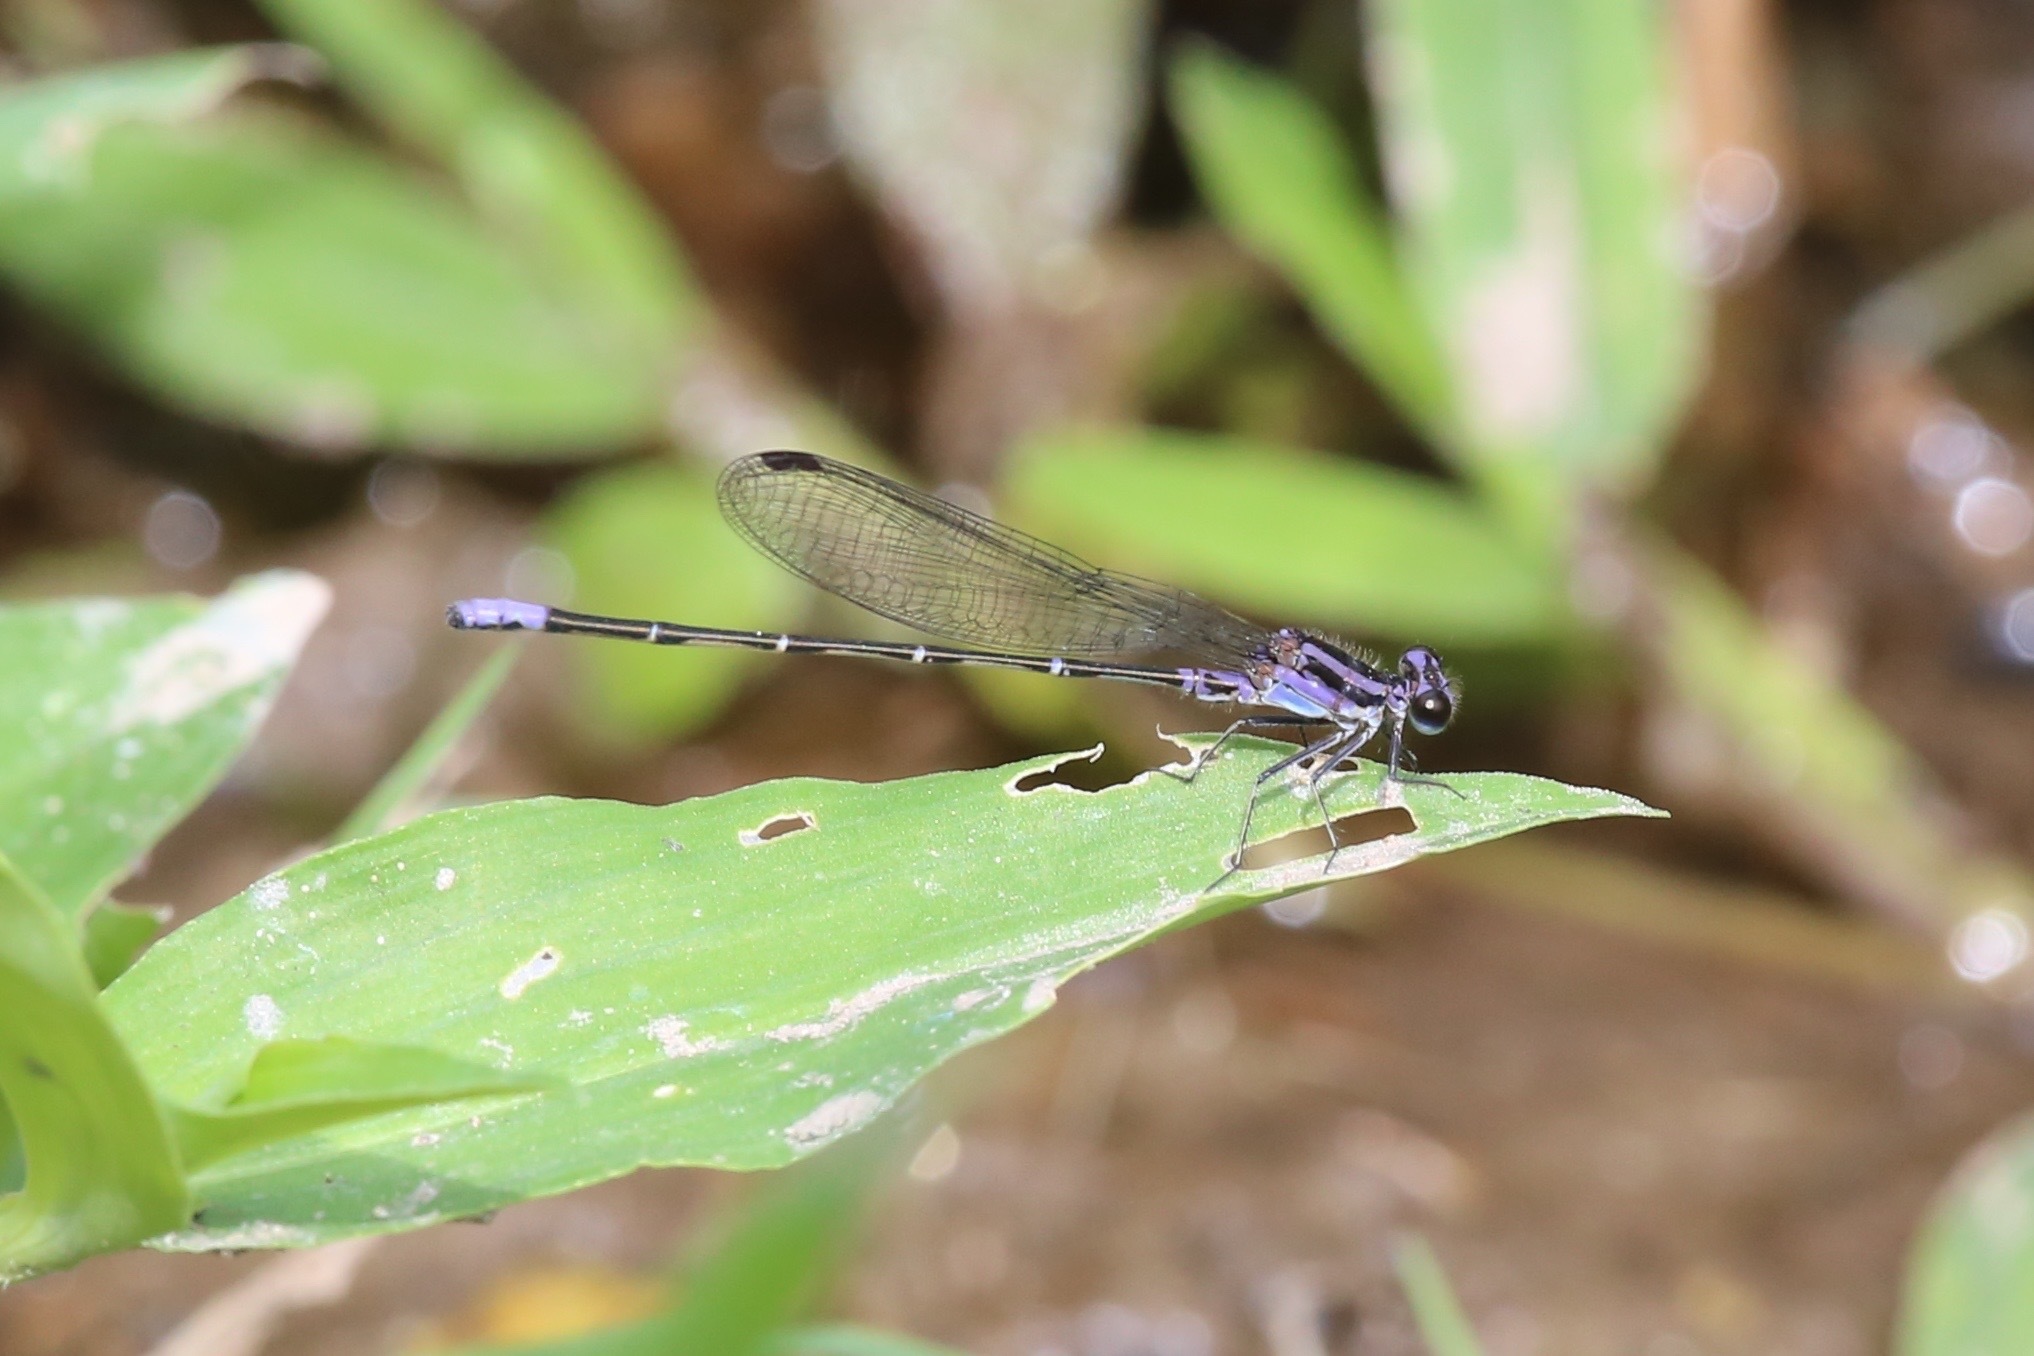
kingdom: Animalia
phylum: Arthropoda
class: Insecta
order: Odonata
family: Coenagrionidae
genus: Argia
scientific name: Argia pulla
